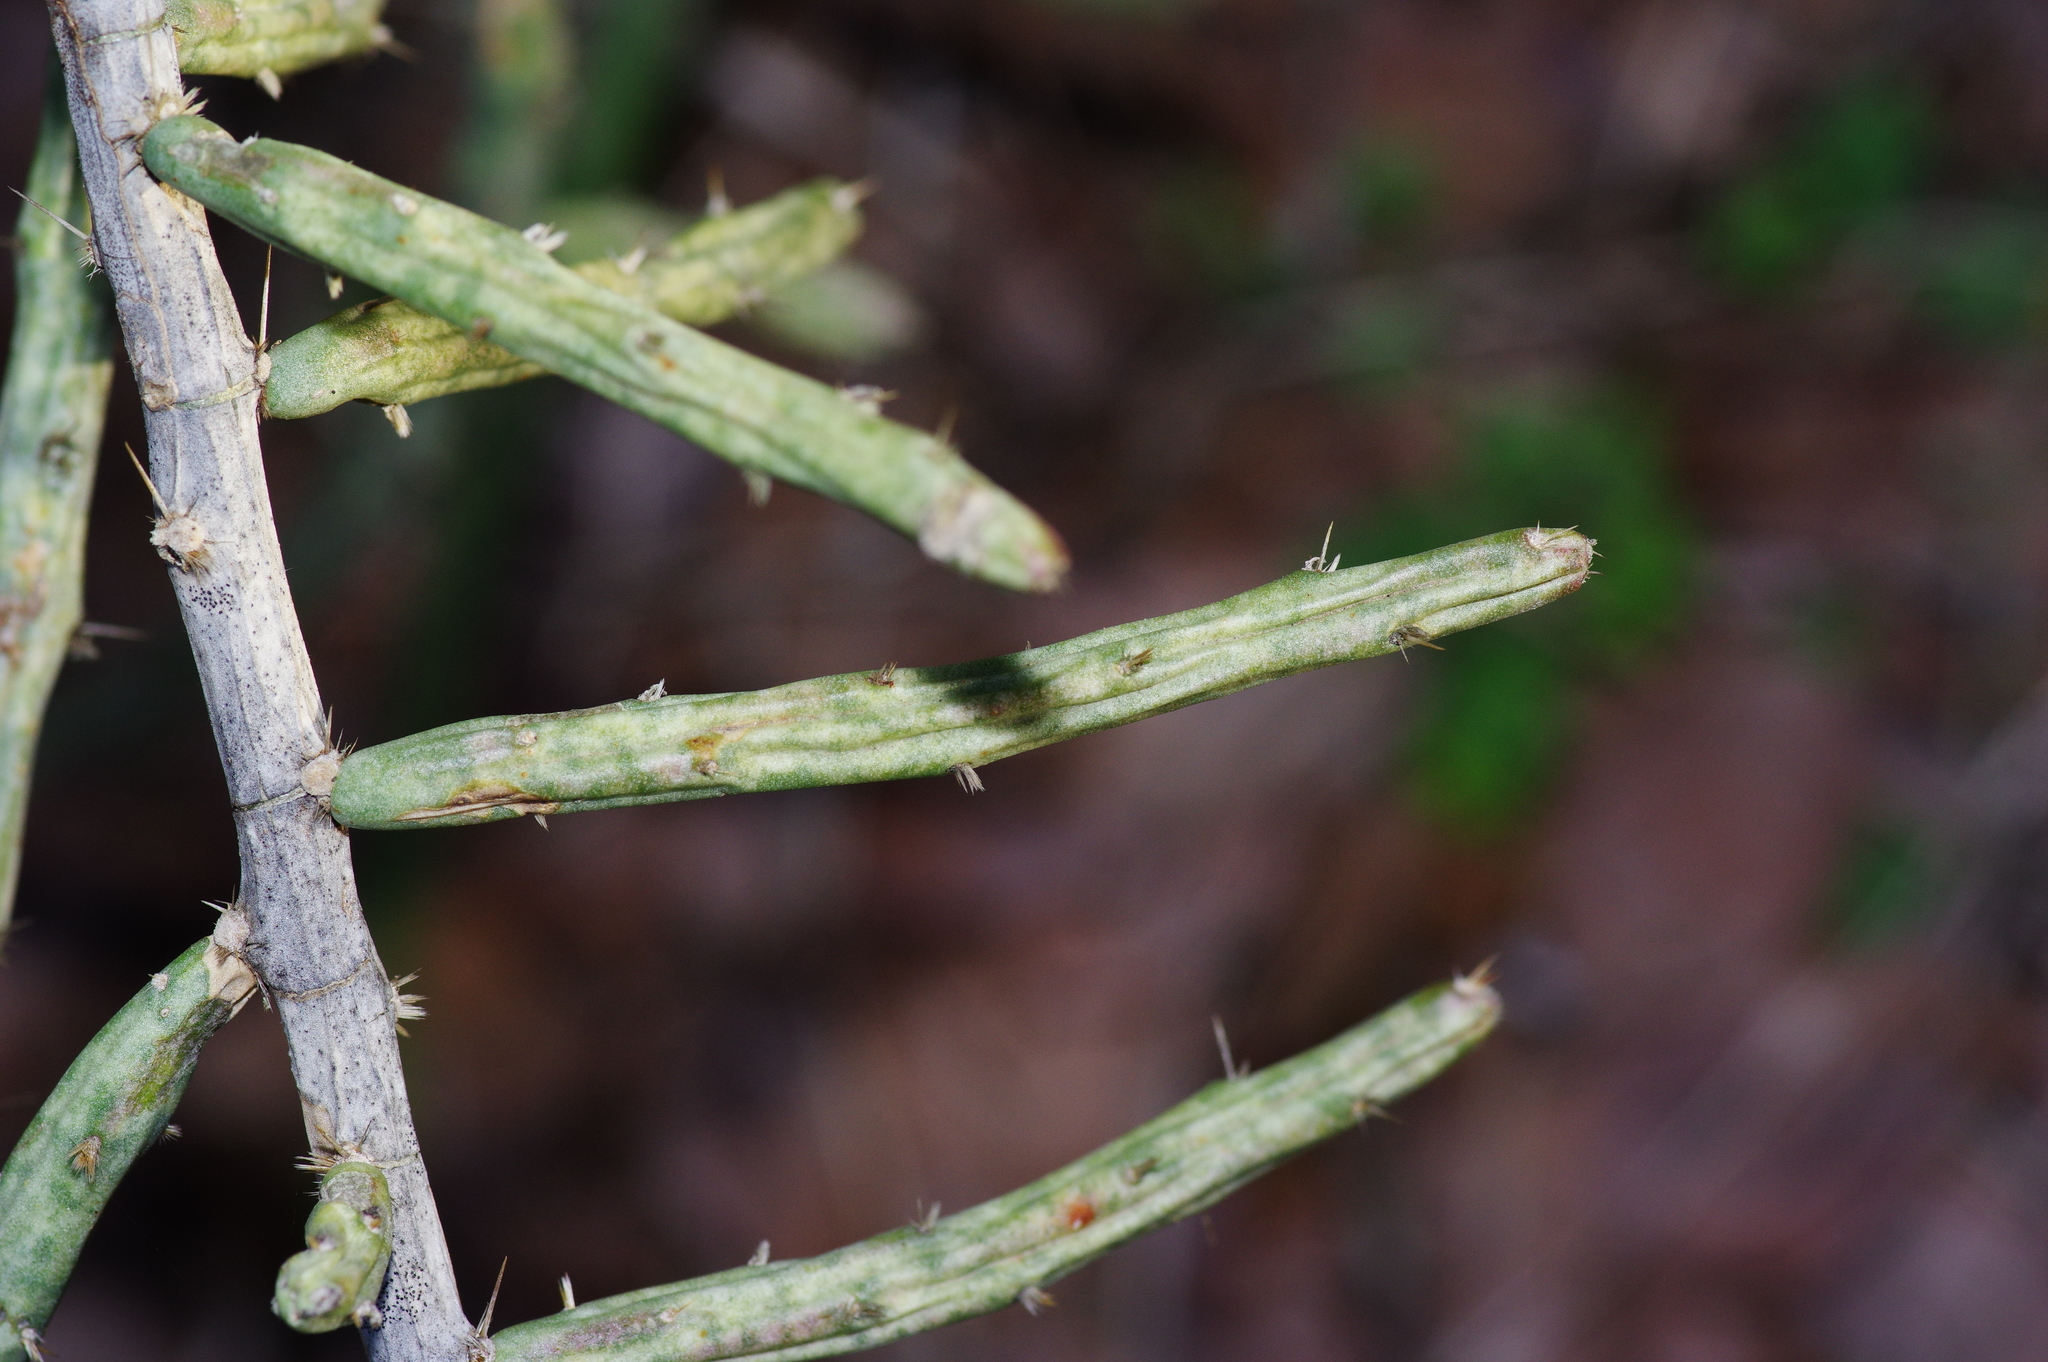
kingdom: Plantae
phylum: Tracheophyta
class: Magnoliopsida
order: Caryophyllales
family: Cactaceae
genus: Cylindropuntia
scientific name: Cylindropuntia leptocaulis
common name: Christmas cactus
